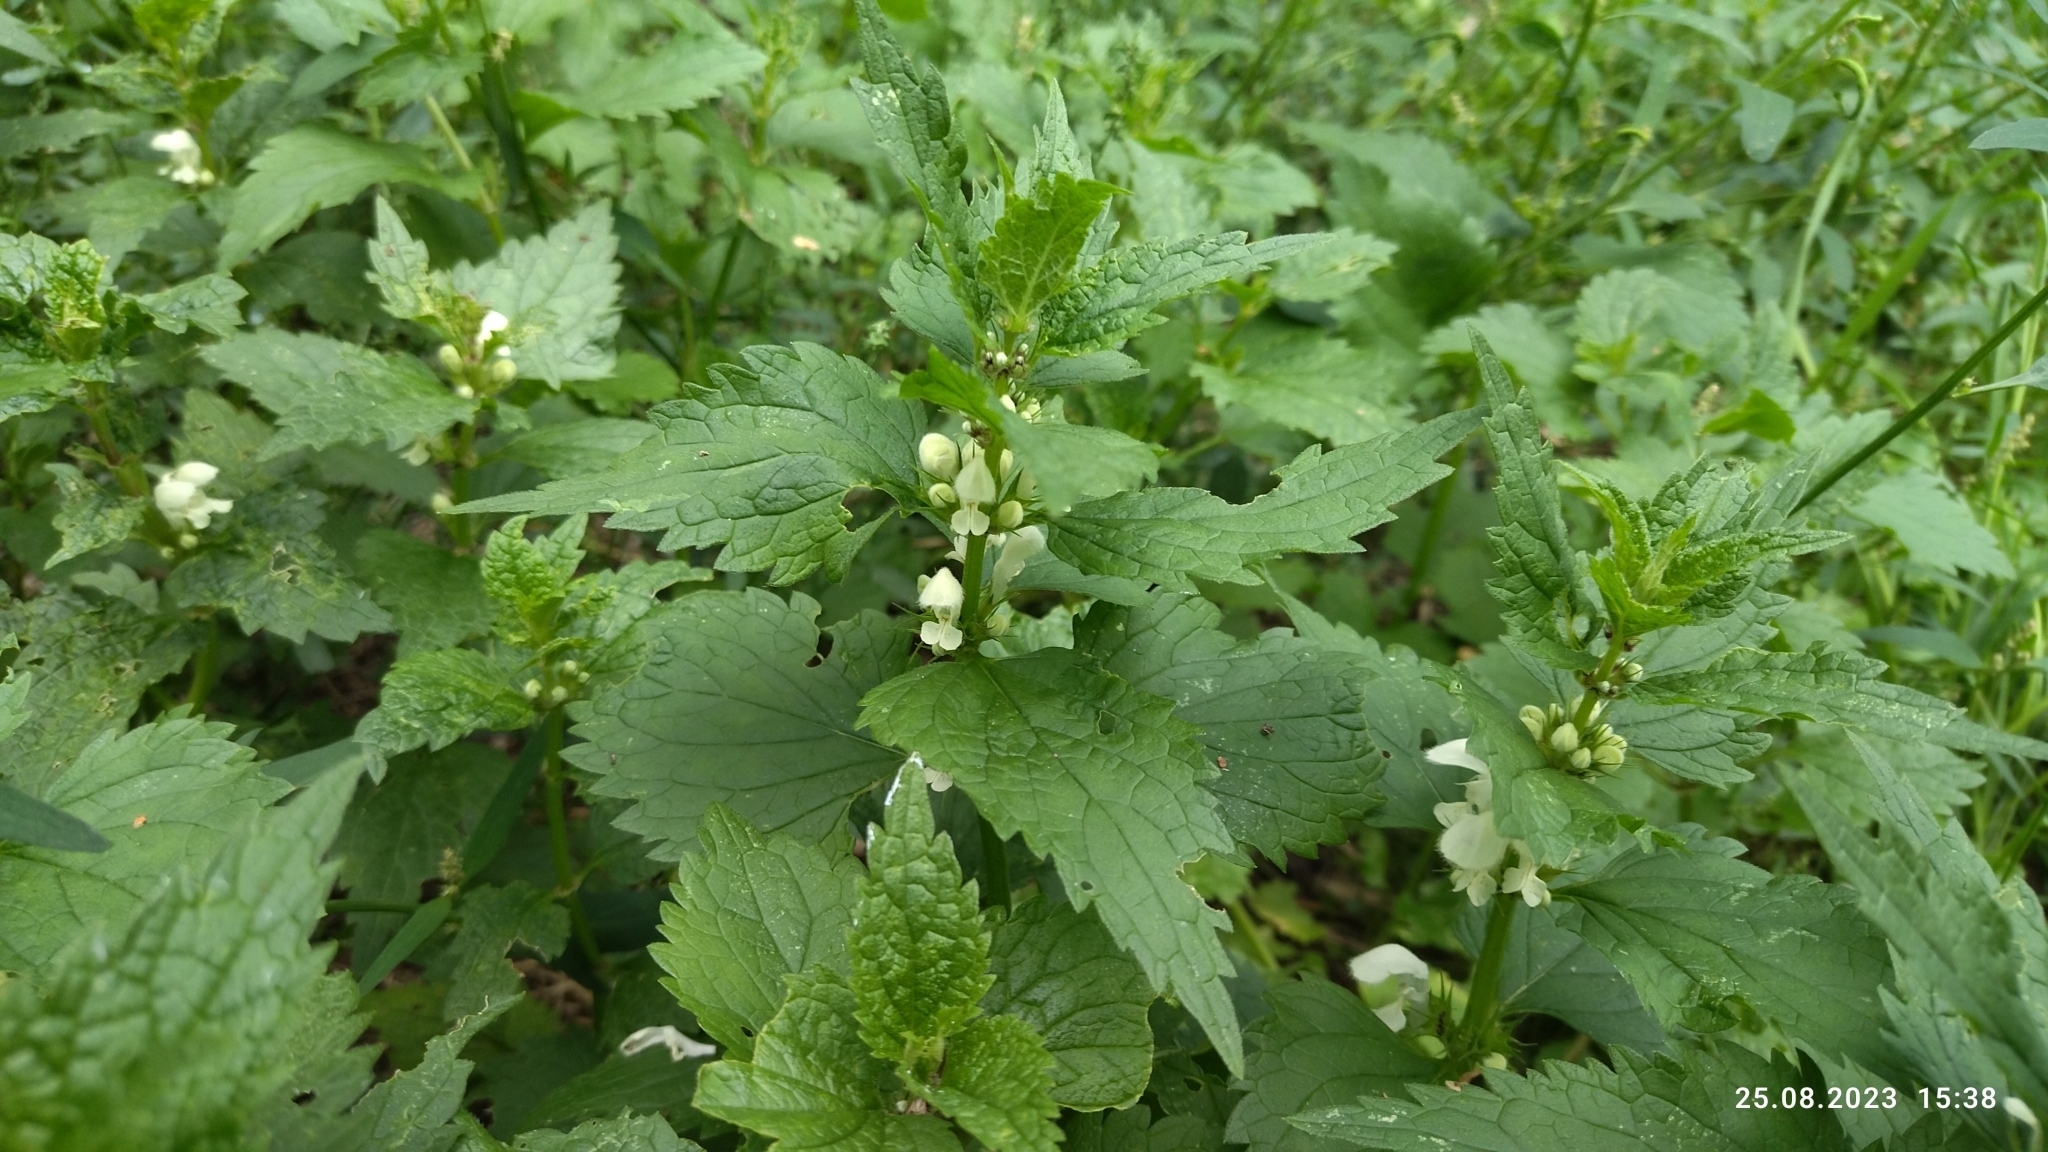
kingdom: Plantae
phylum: Tracheophyta
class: Magnoliopsida
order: Lamiales
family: Lamiaceae
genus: Lamium
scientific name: Lamium album
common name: White dead-nettle
